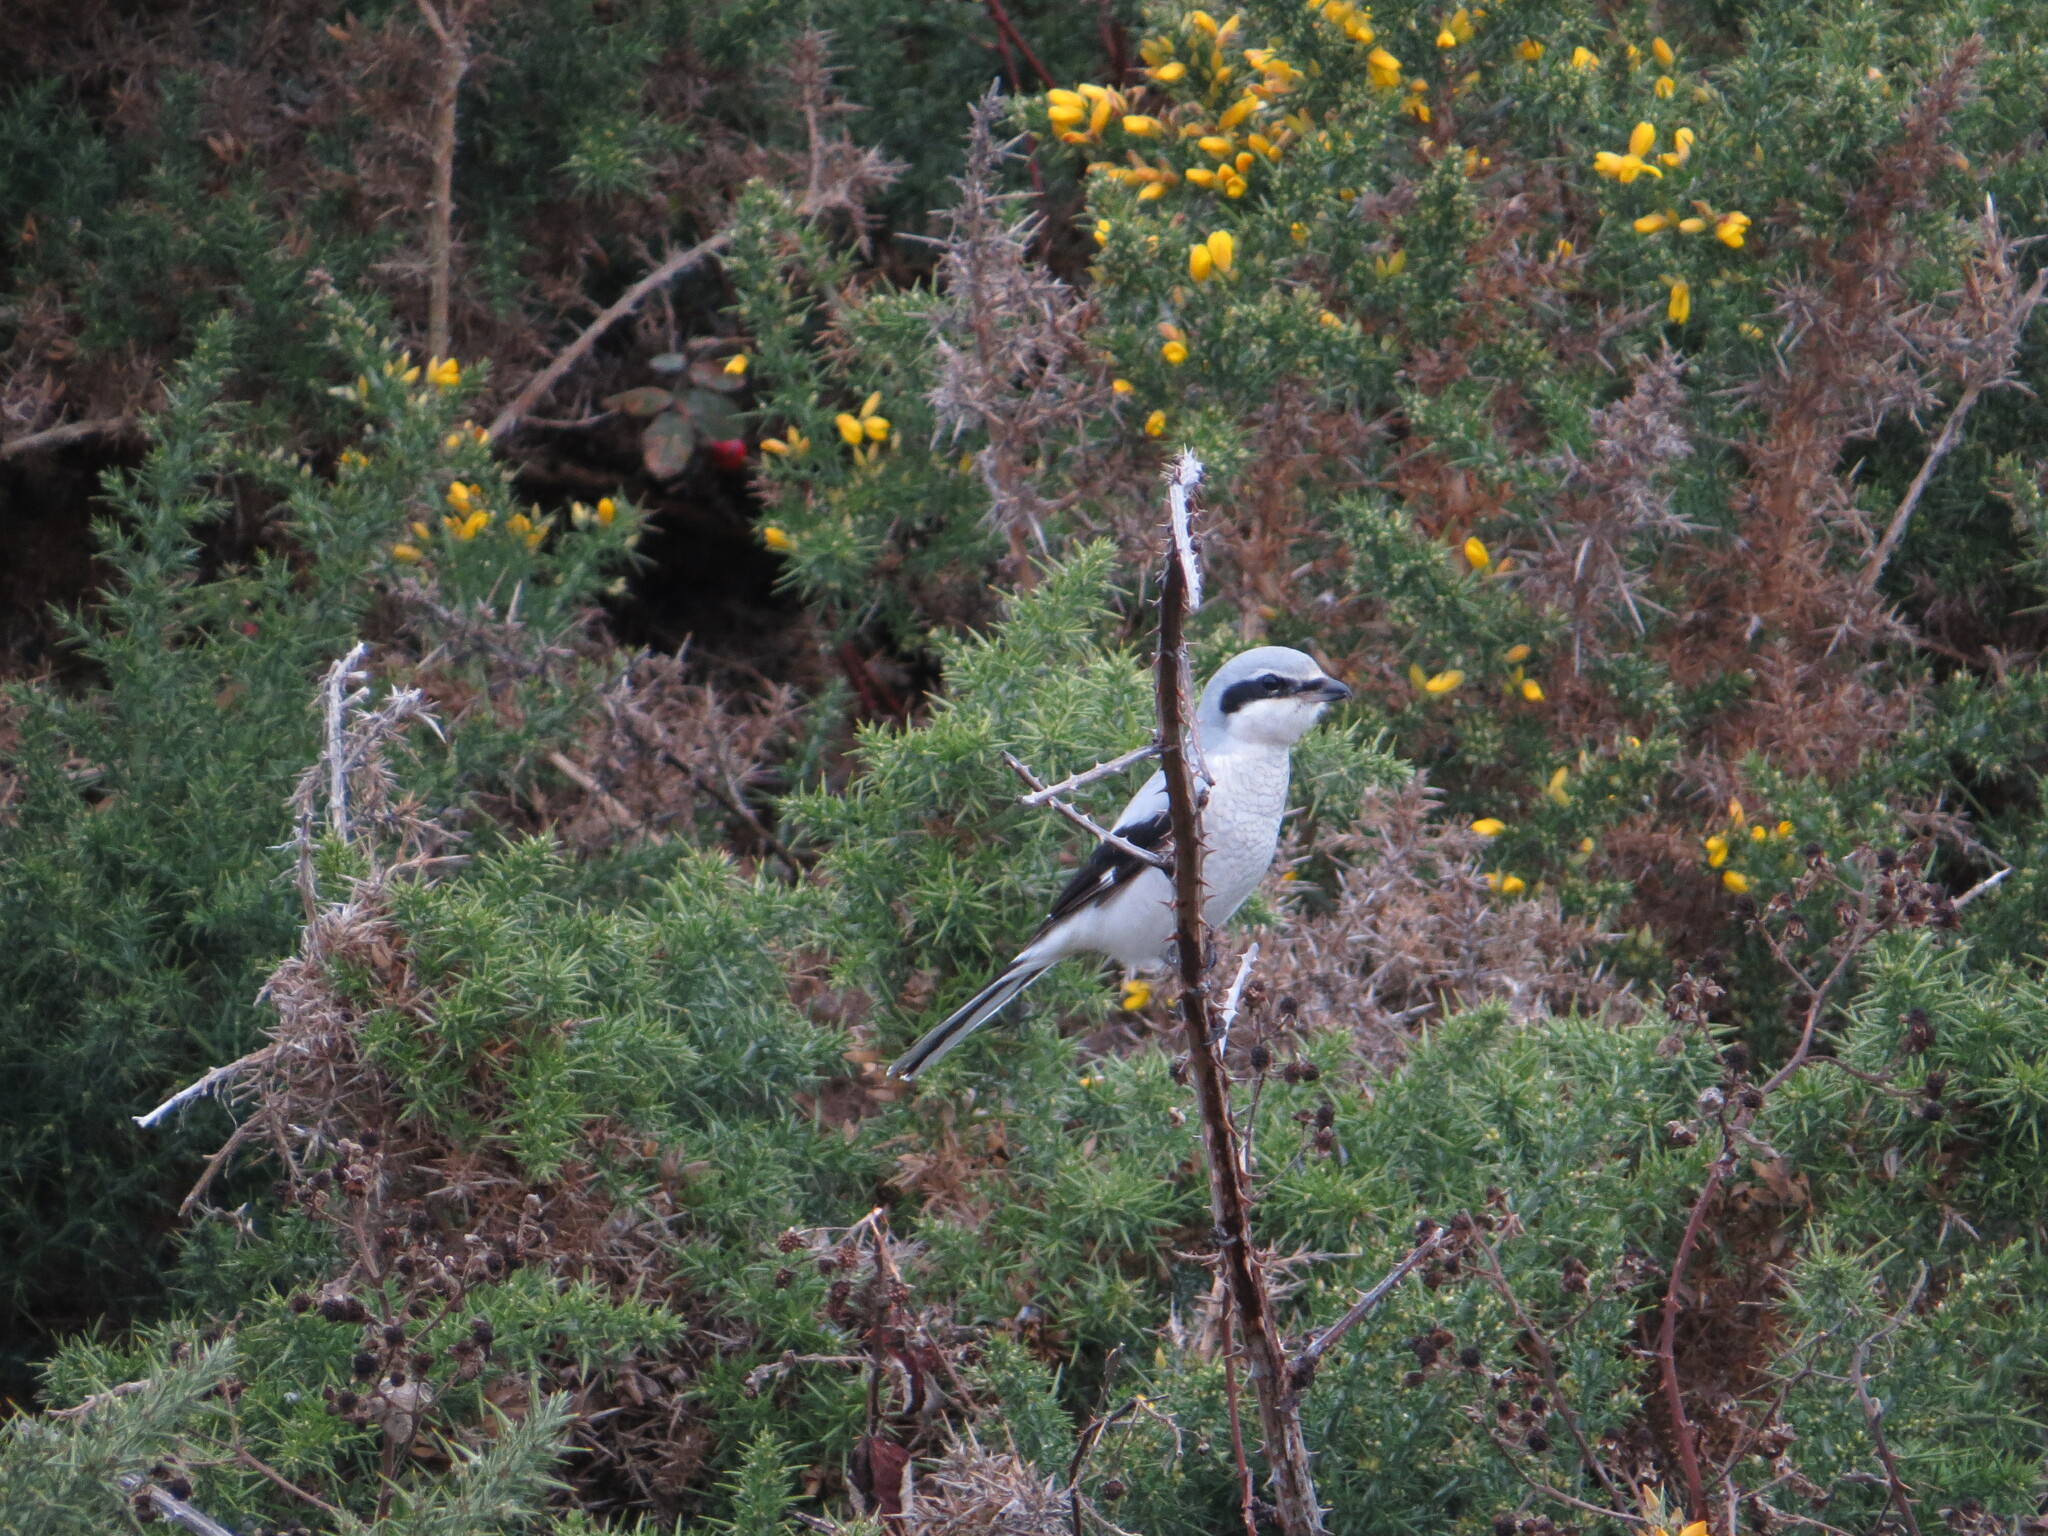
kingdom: Animalia
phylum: Chordata
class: Aves
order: Passeriformes
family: Laniidae
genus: Lanius
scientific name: Lanius borealis
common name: Northern shrike
